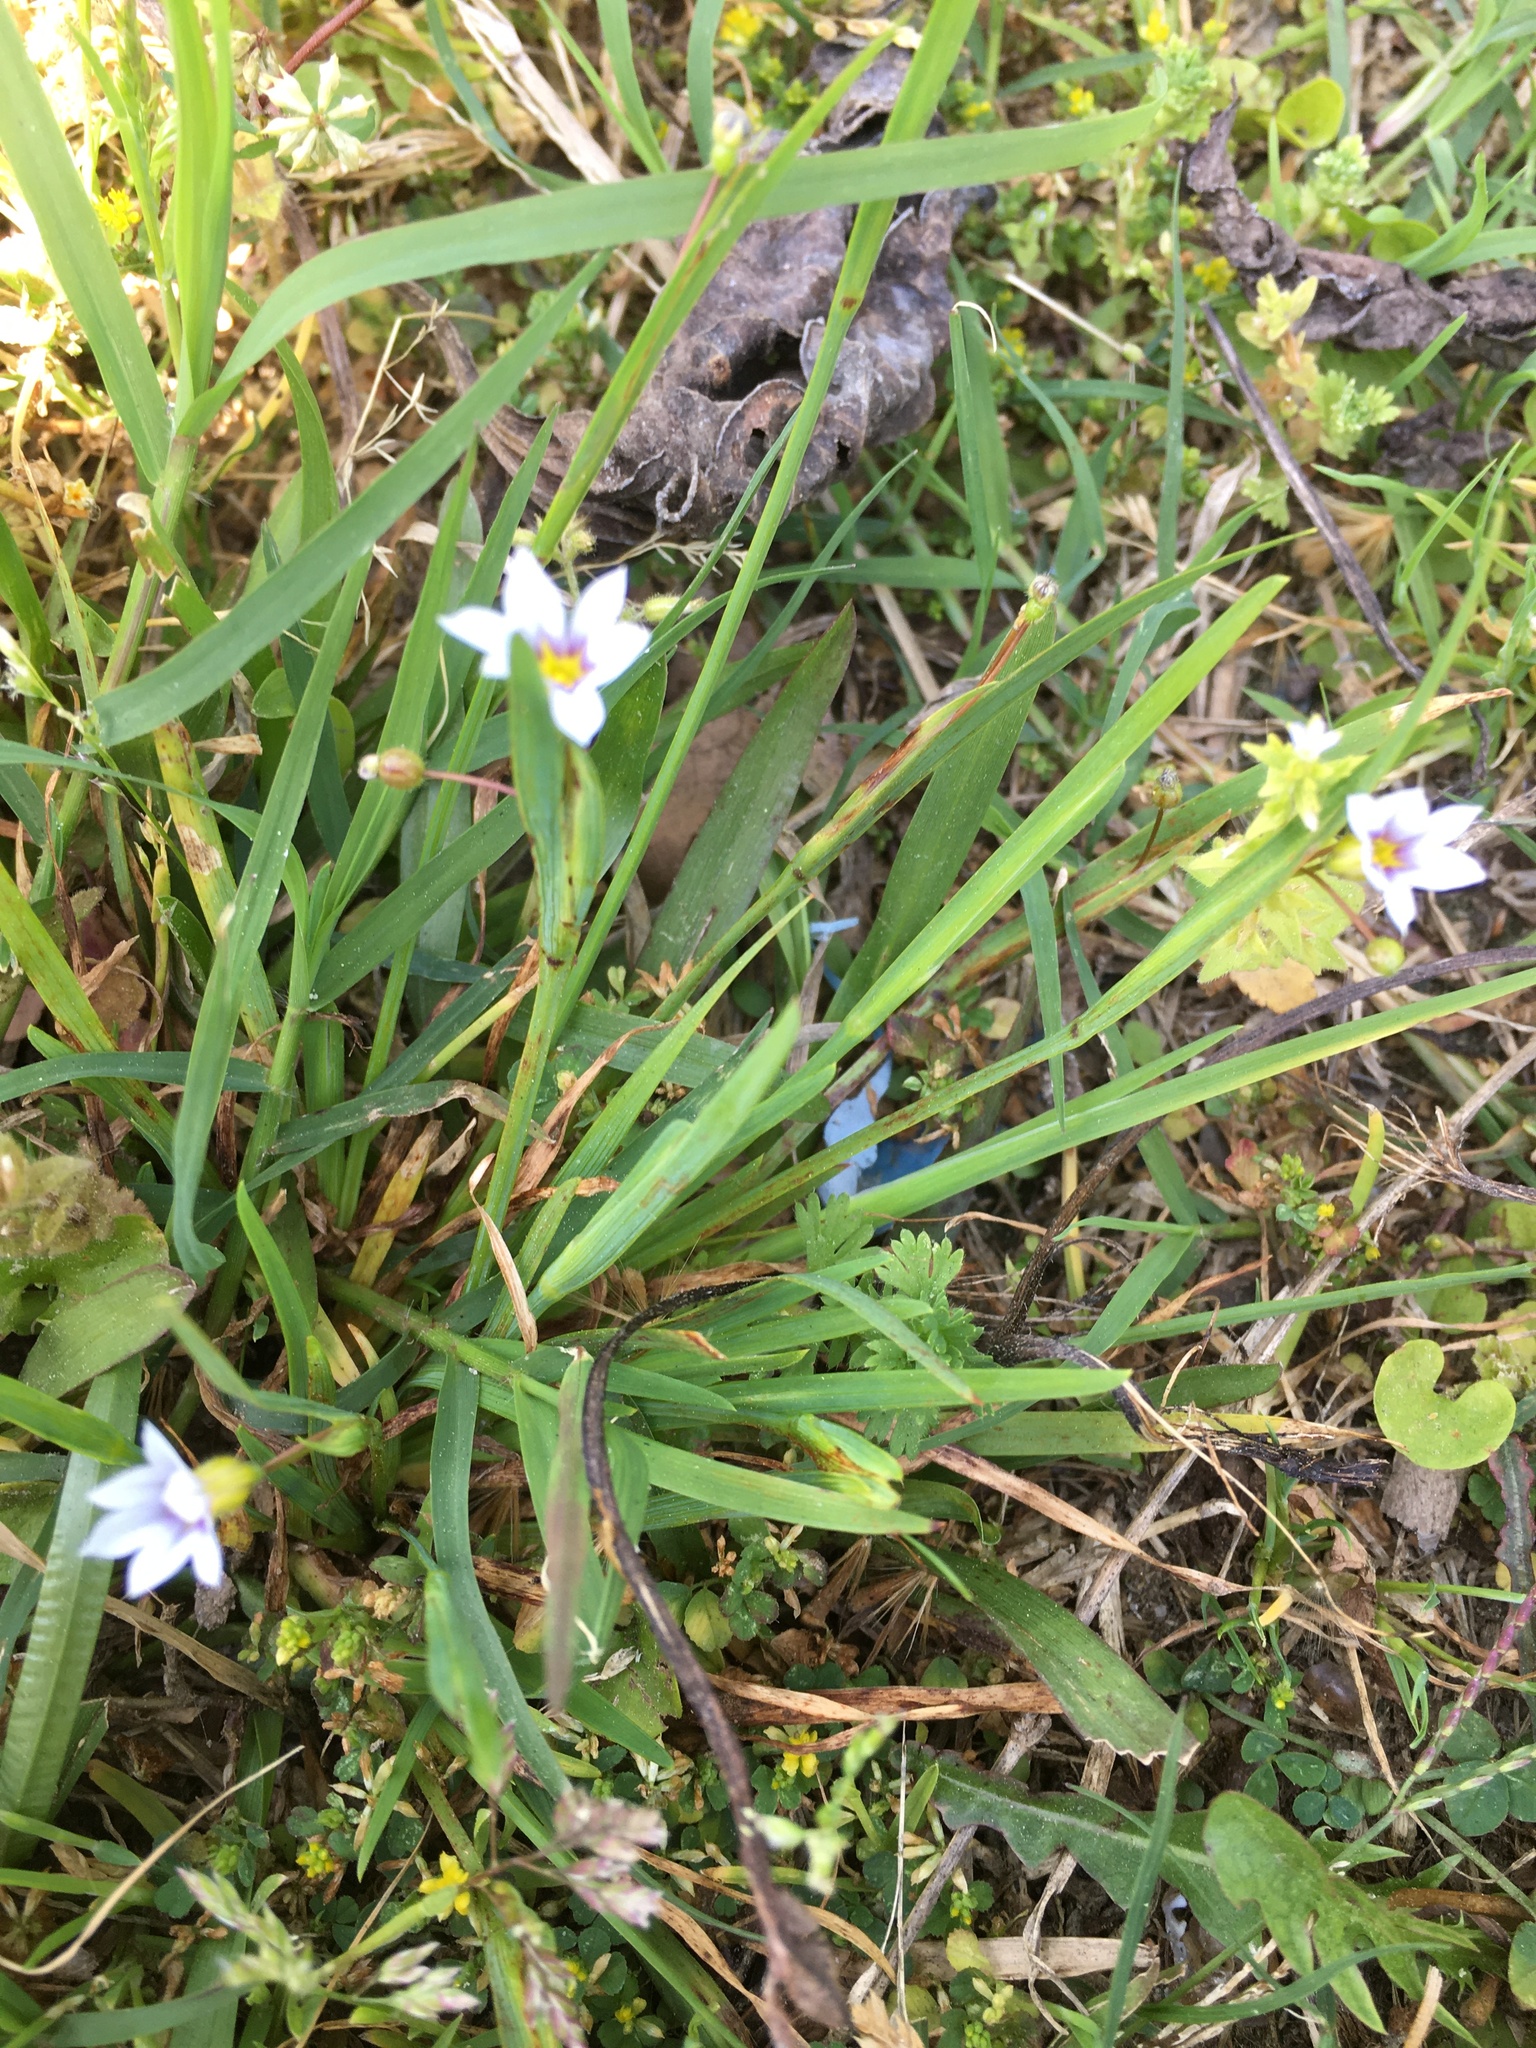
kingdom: Plantae
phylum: Tracheophyta
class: Liliopsida
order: Asparagales
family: Iridaceae
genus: Sisyrinchium
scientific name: Sisyrinchium micranthum
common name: Bermuda pigroot
